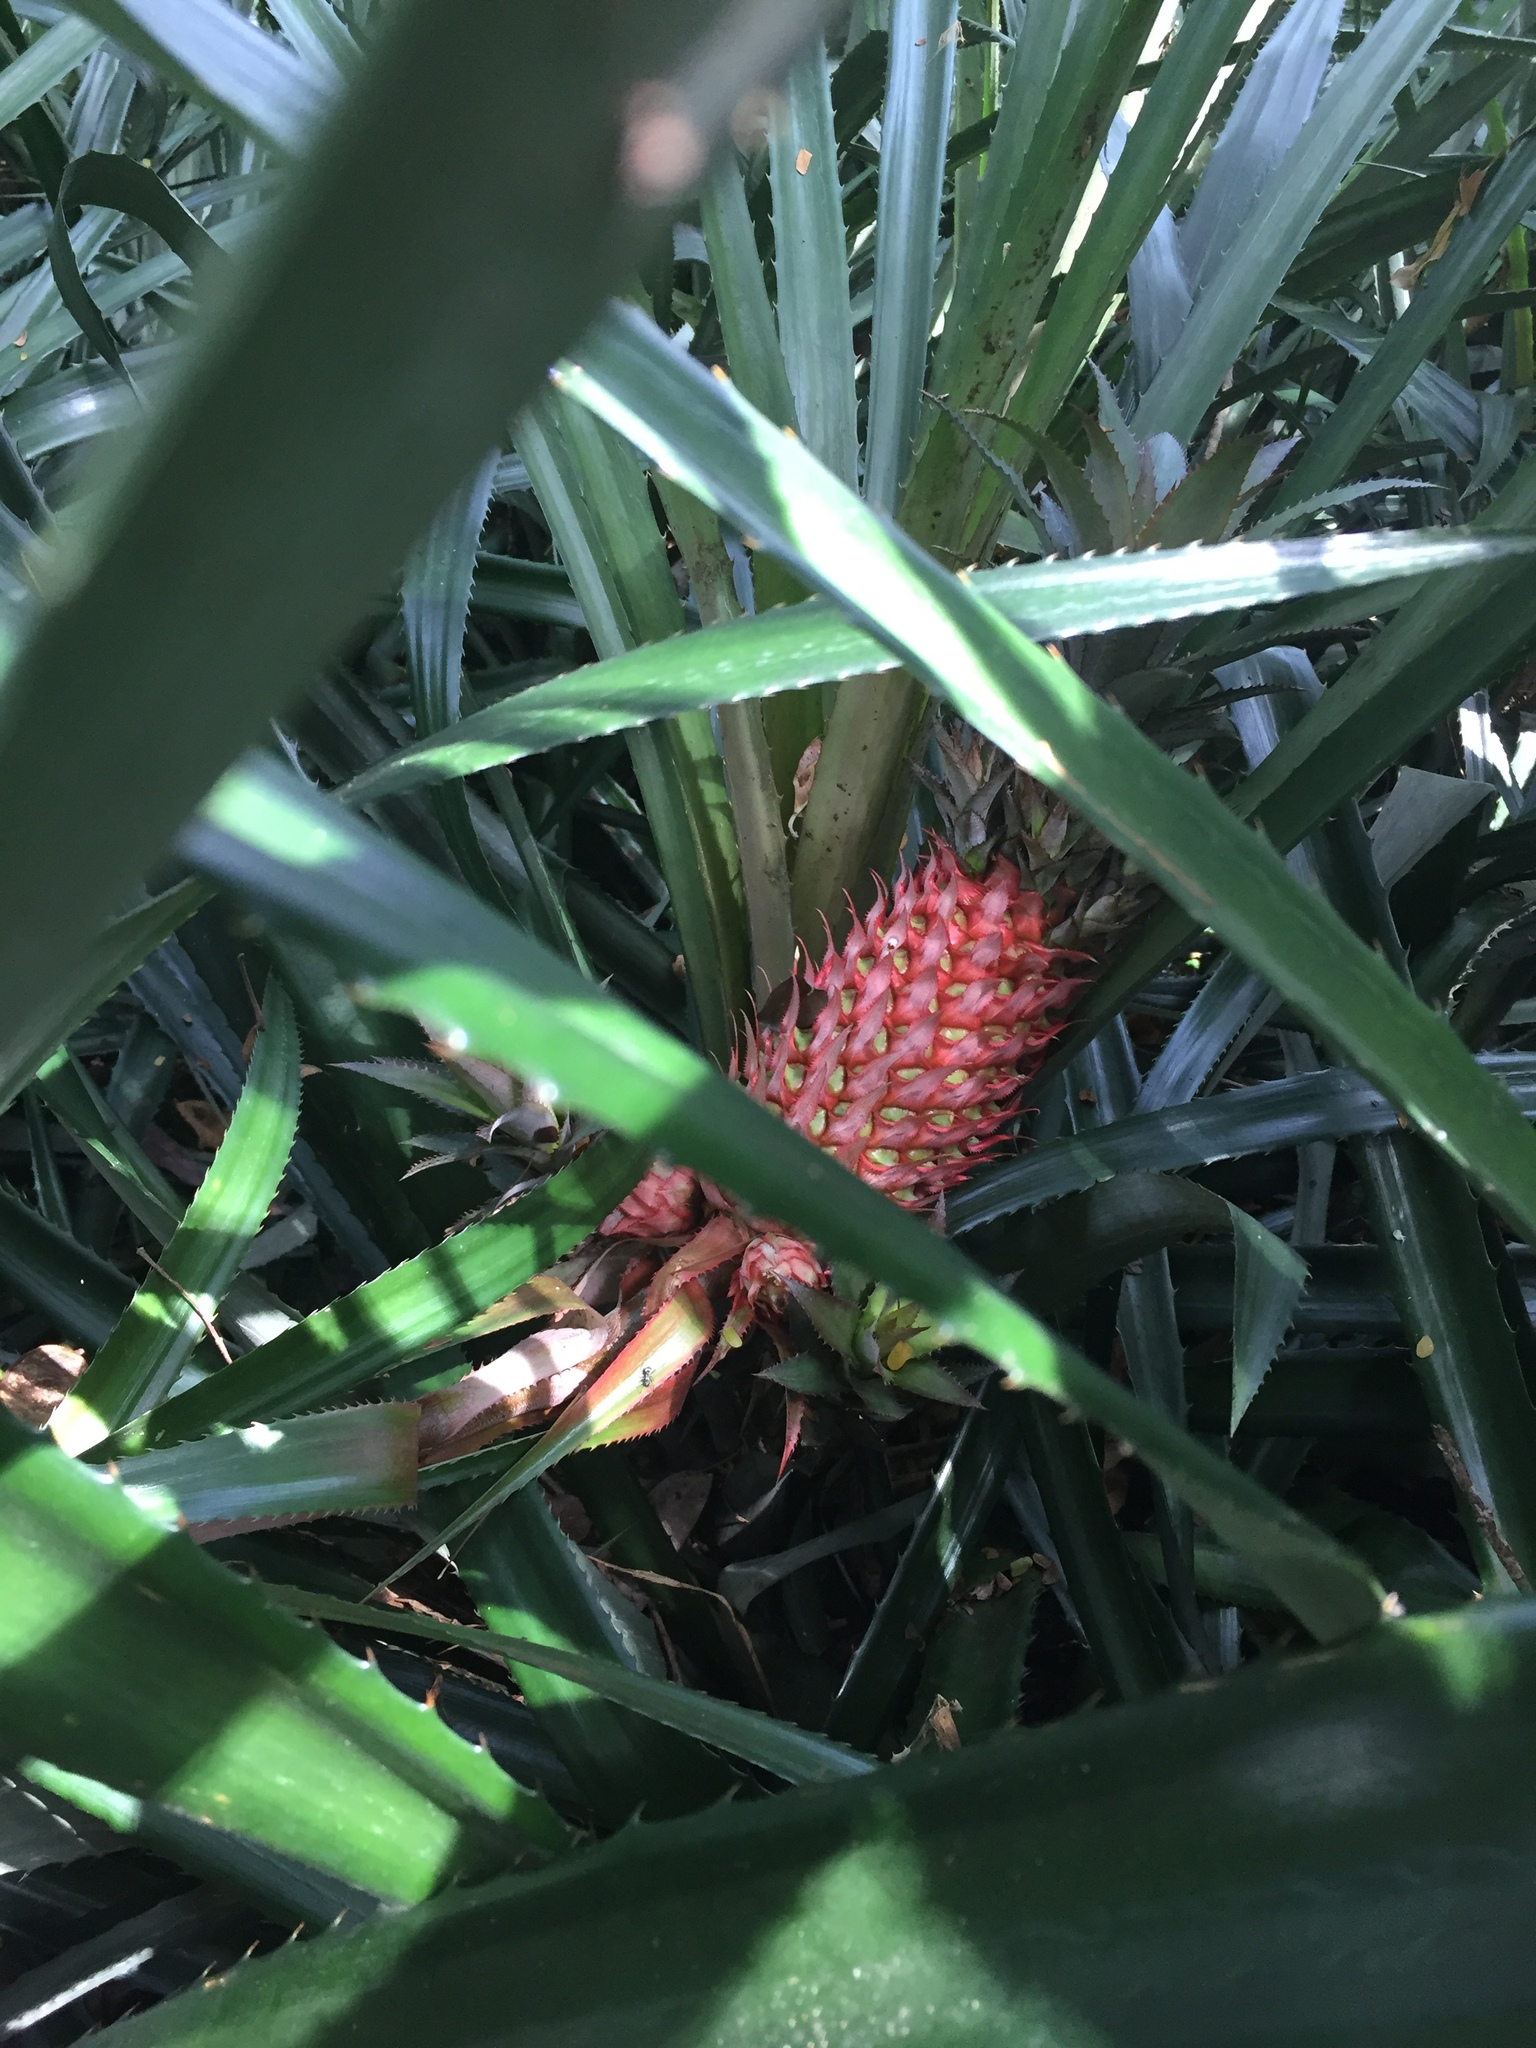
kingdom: Plantae
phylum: Tracheophyta
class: Liliopsida
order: Poales
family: Bromeliaceae
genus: Ananas
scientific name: Ananas comosus
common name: Pineapple
